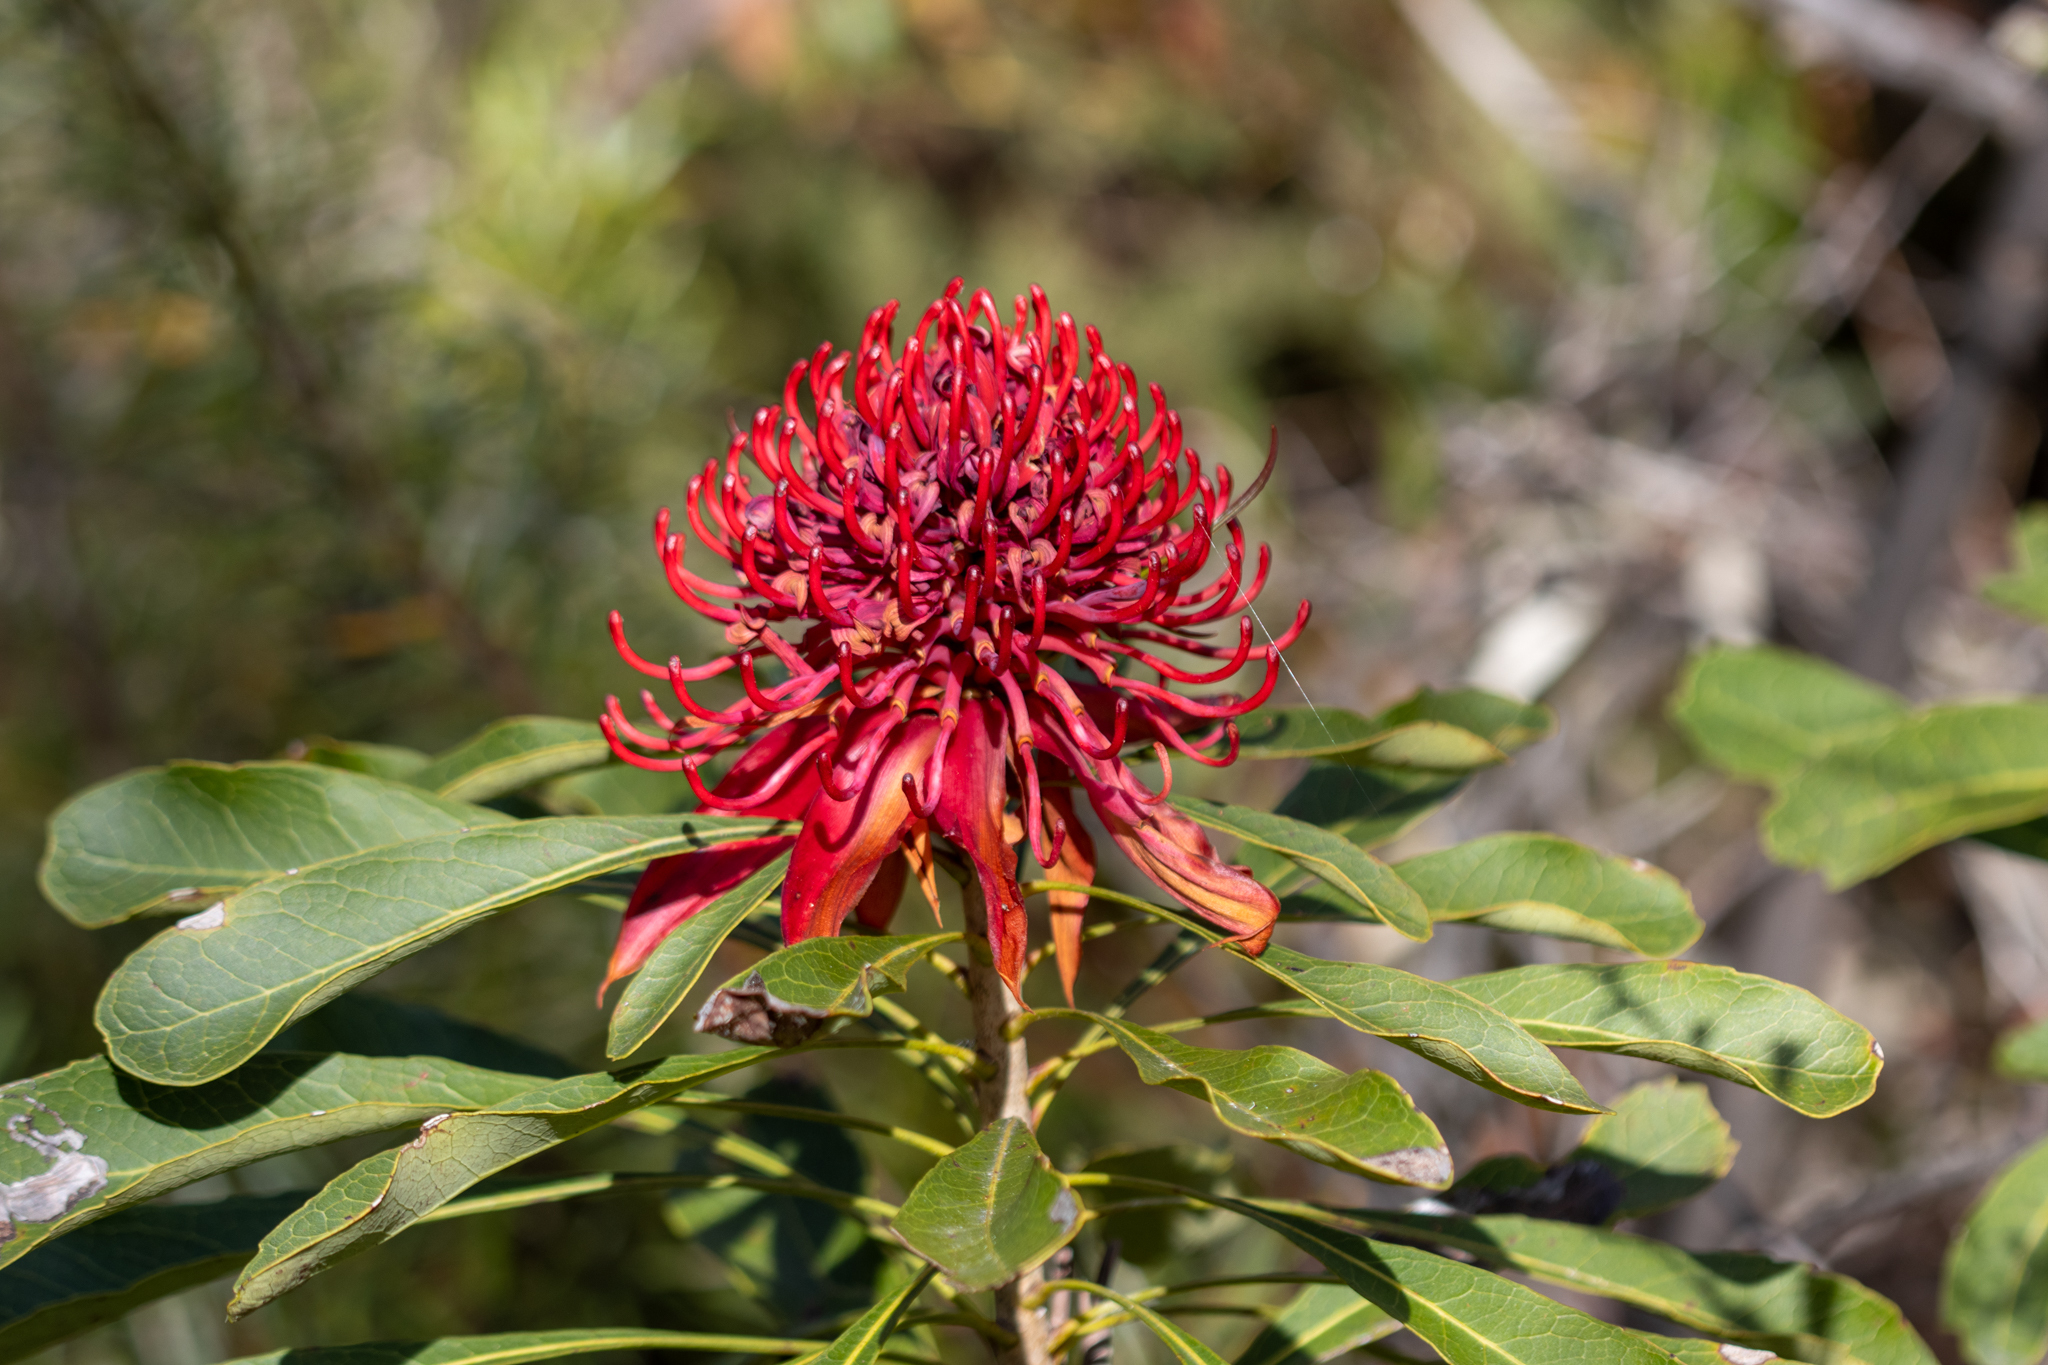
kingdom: Plantae
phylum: Tracheophyta
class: Magnoliopsida
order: Proteales
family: Proteaceae
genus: Telopea
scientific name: Telopea speciosissima
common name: New south wales waratah
